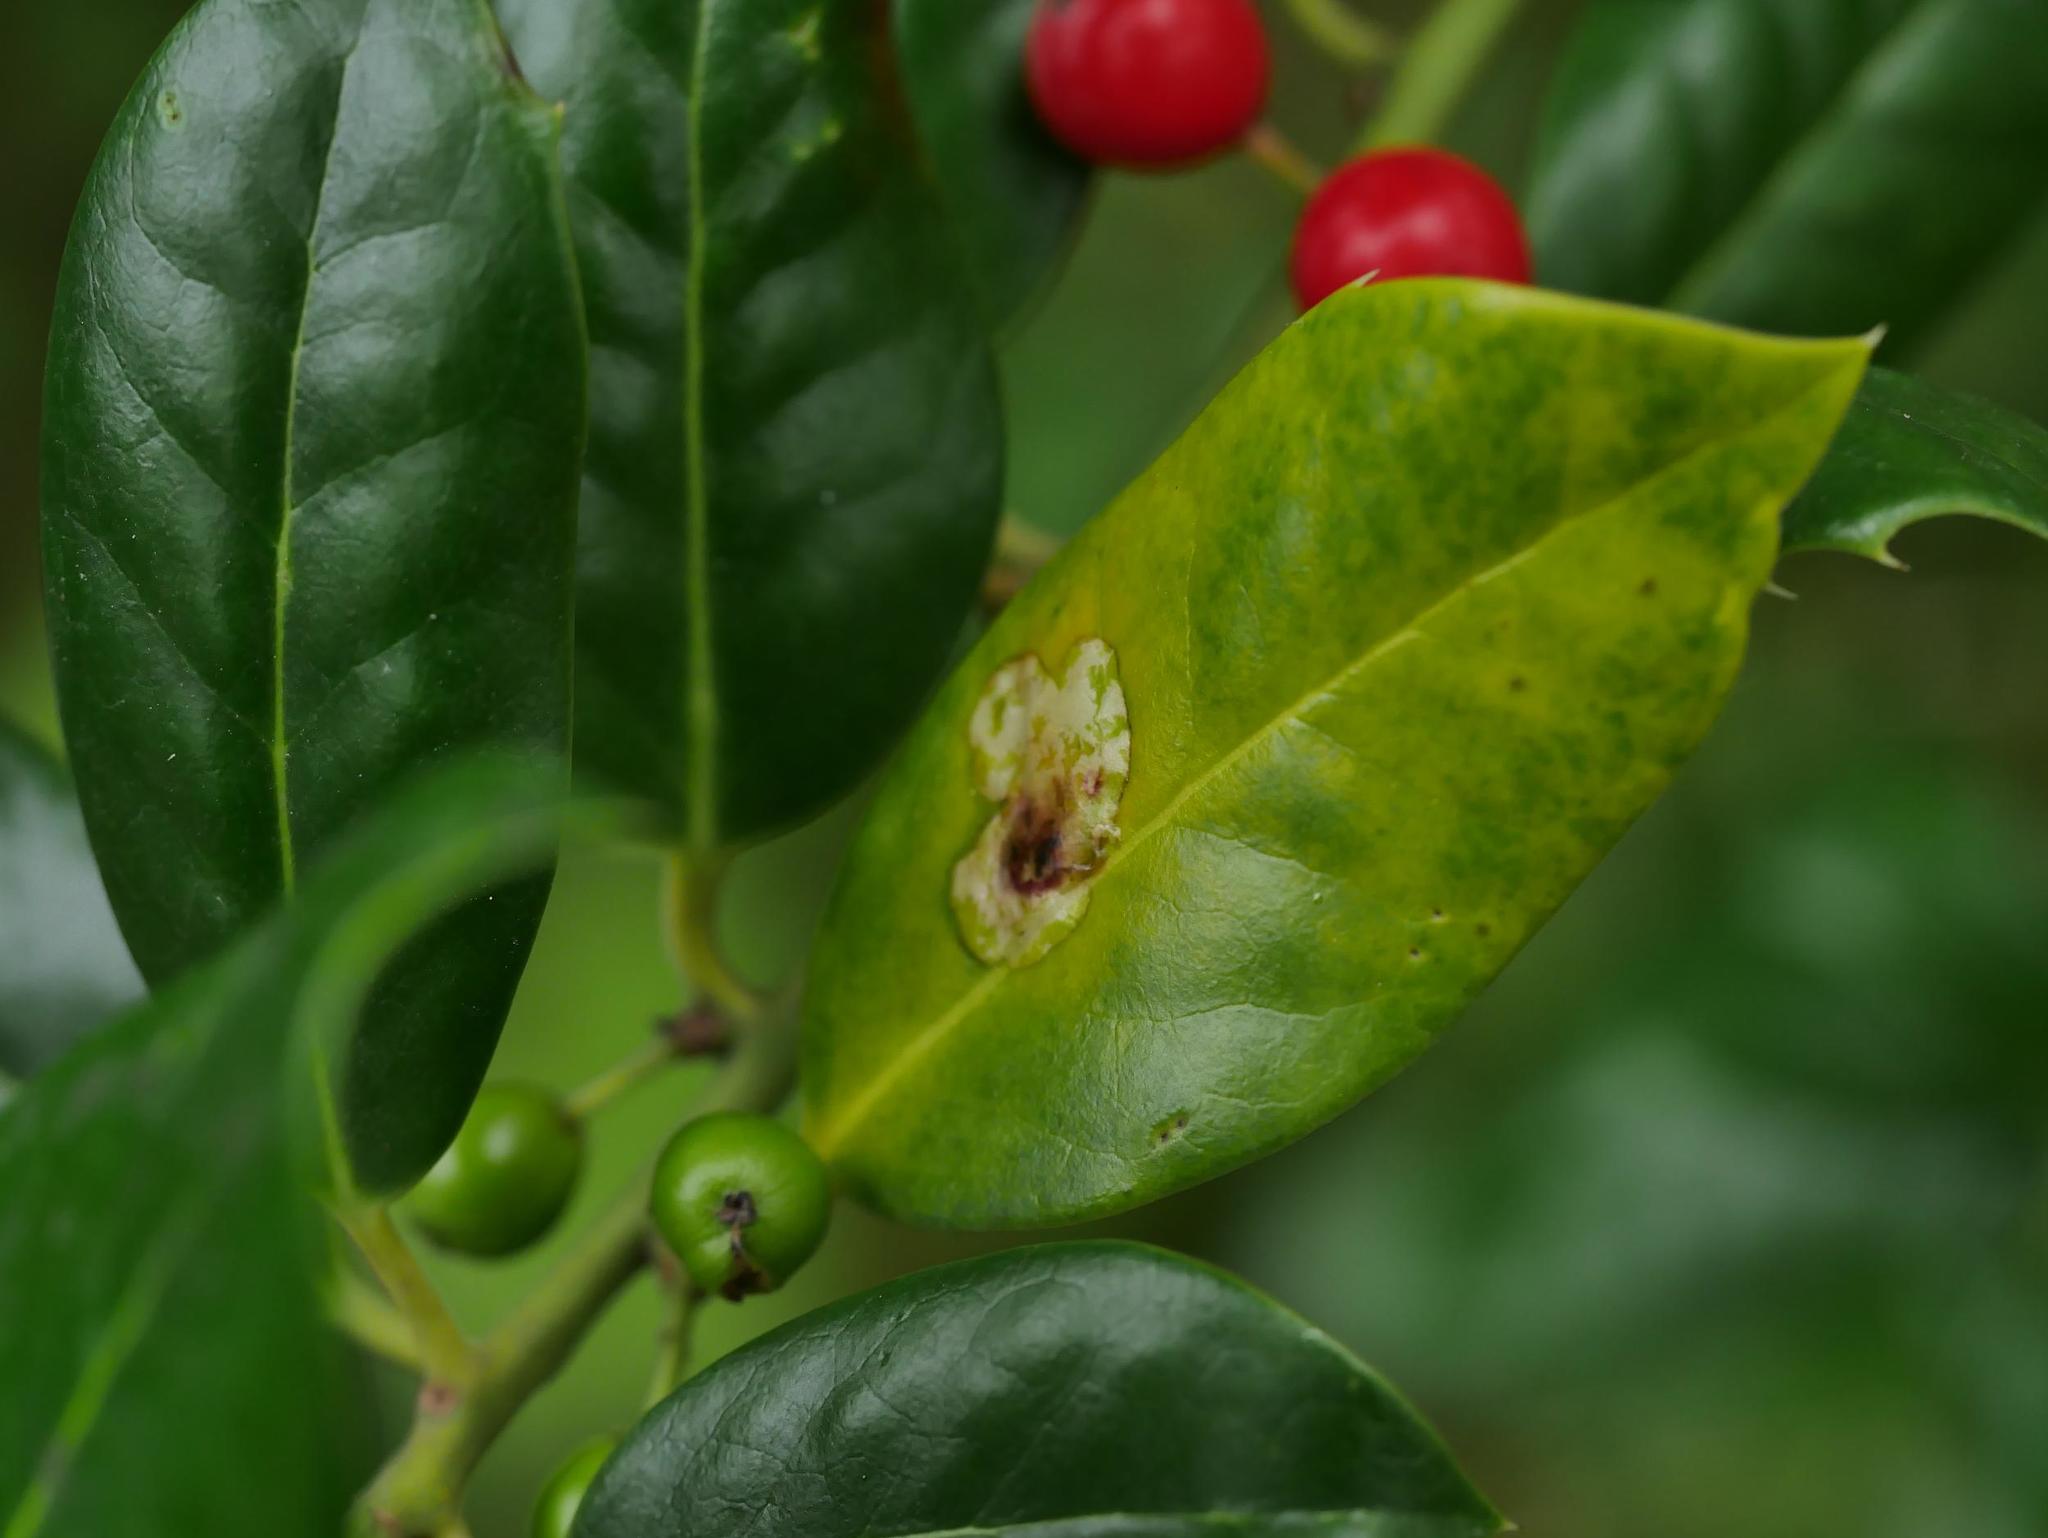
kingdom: Animalia
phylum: Arthropoda
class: Insecta
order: Diptera
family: Agromyzidae
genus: Phytomyza
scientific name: Phytomyza ilicis
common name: Holly leafminer
